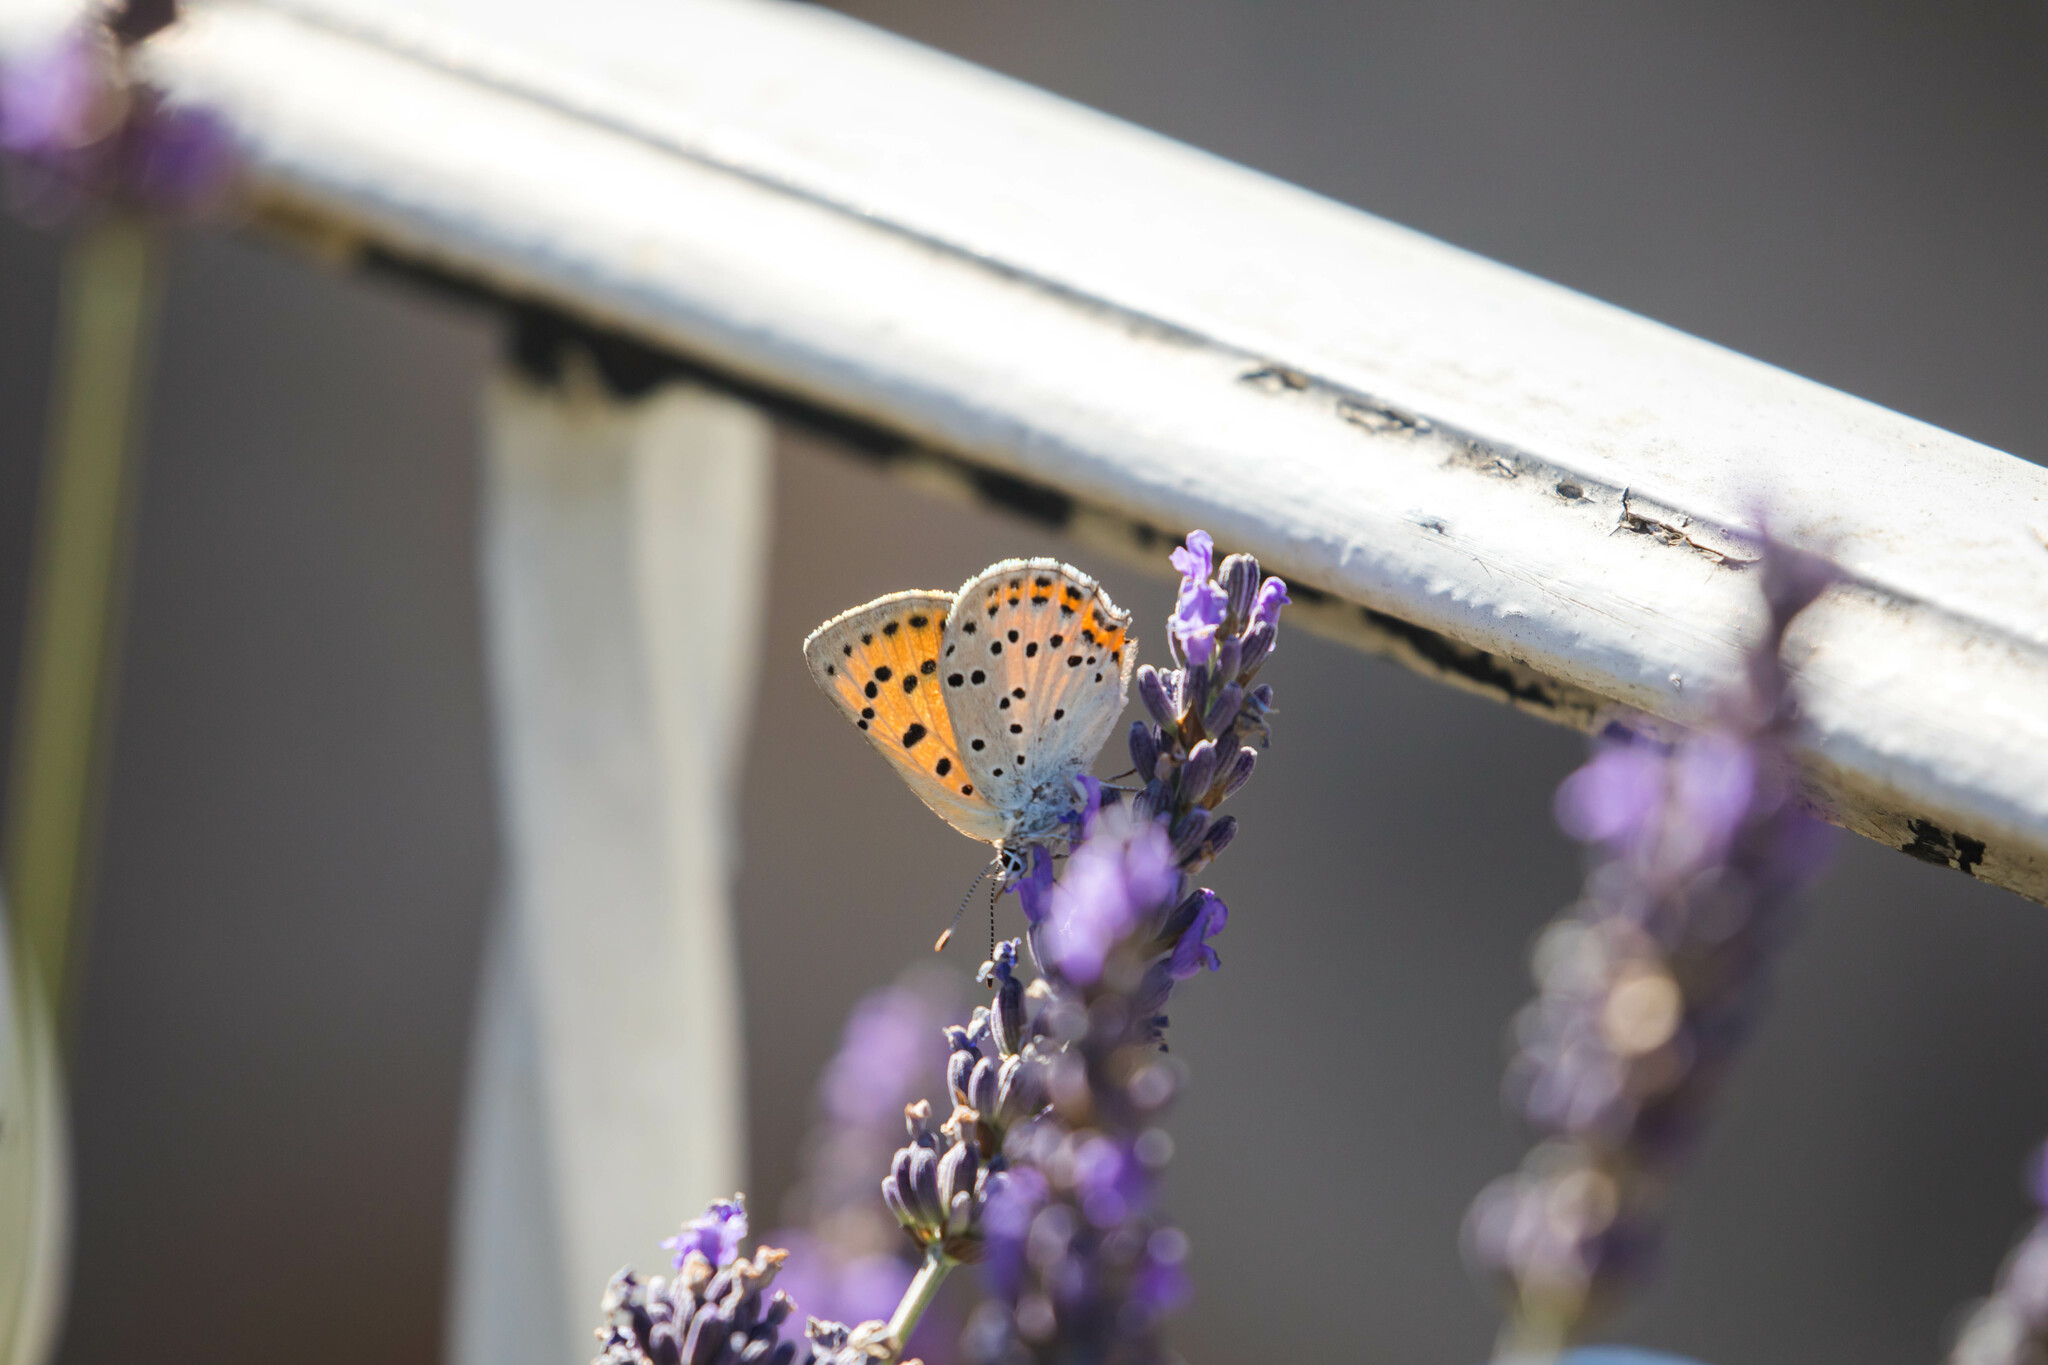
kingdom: Animalia
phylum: Arthropoda
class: Insecta
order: Lepidoptera
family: Lycaenidae
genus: Lycaena
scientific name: Lycaena alciphron
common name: Purple-shot copper
